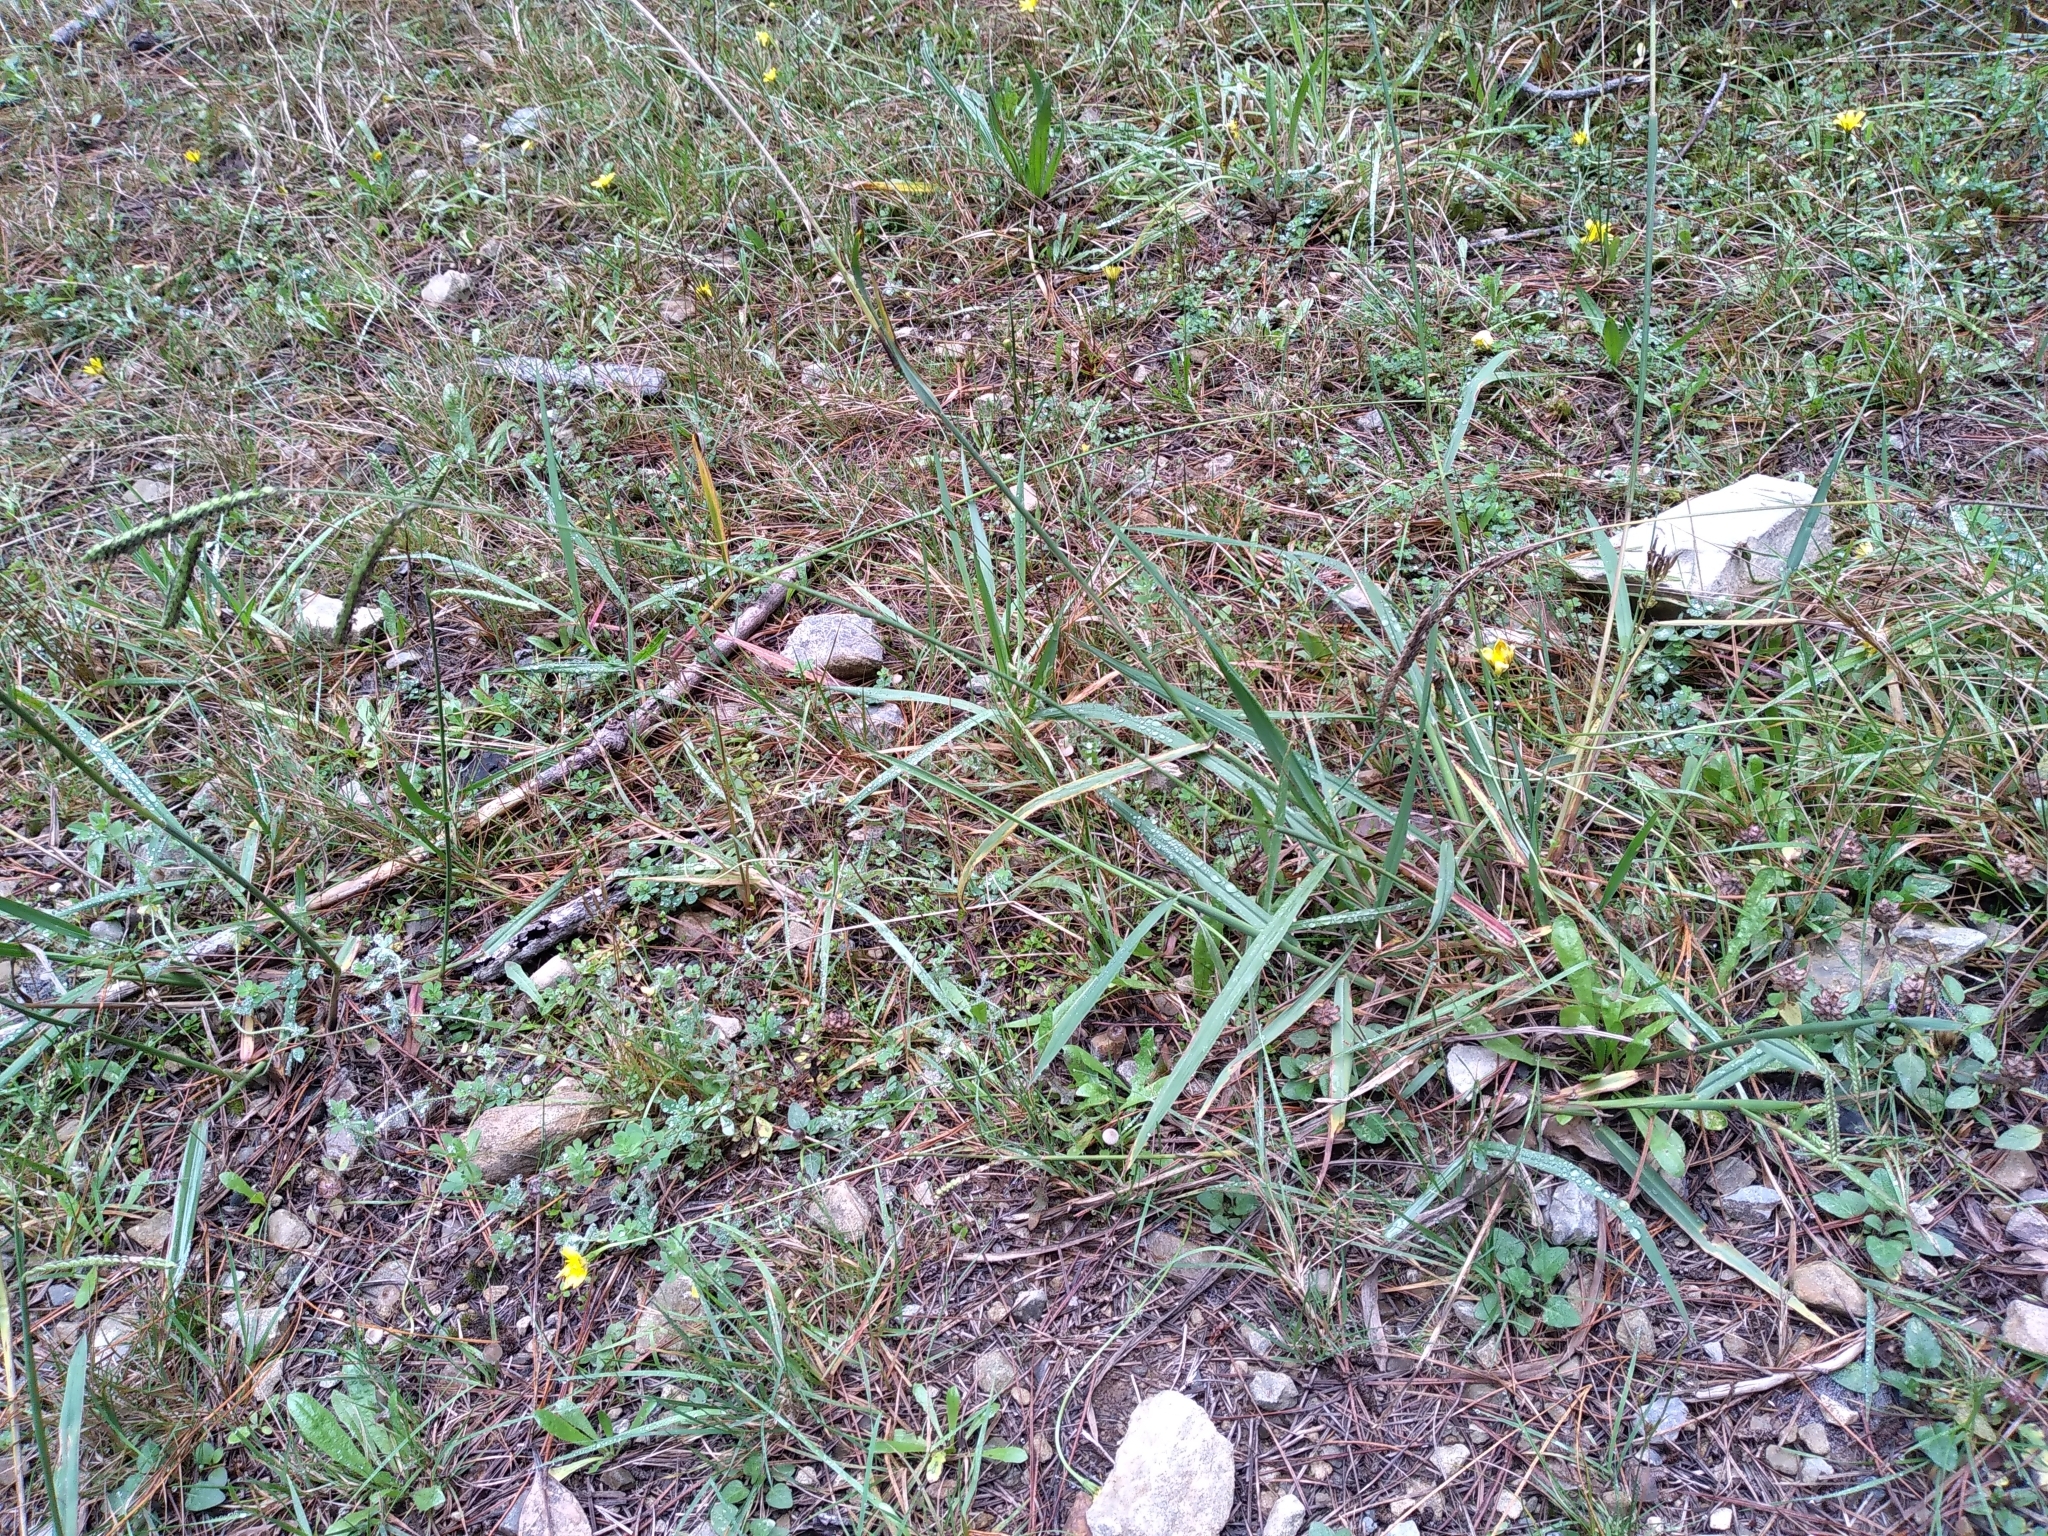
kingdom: Plantae
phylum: Tracheophyta
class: Liliopsida
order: Poales
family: Poaceae
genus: Paspalum
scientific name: Paspalum dilatatum
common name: Dallisgrass
